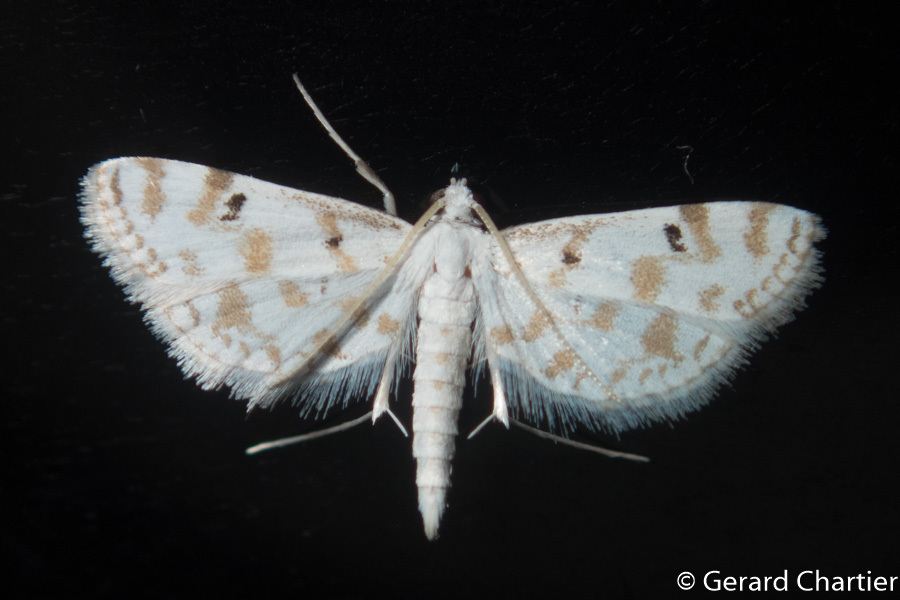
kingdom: Animalia
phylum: Arthropoda
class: Insecta
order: Lepidoptera
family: Crambidae
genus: Parapoynx
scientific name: Parapoynx stagnalis
